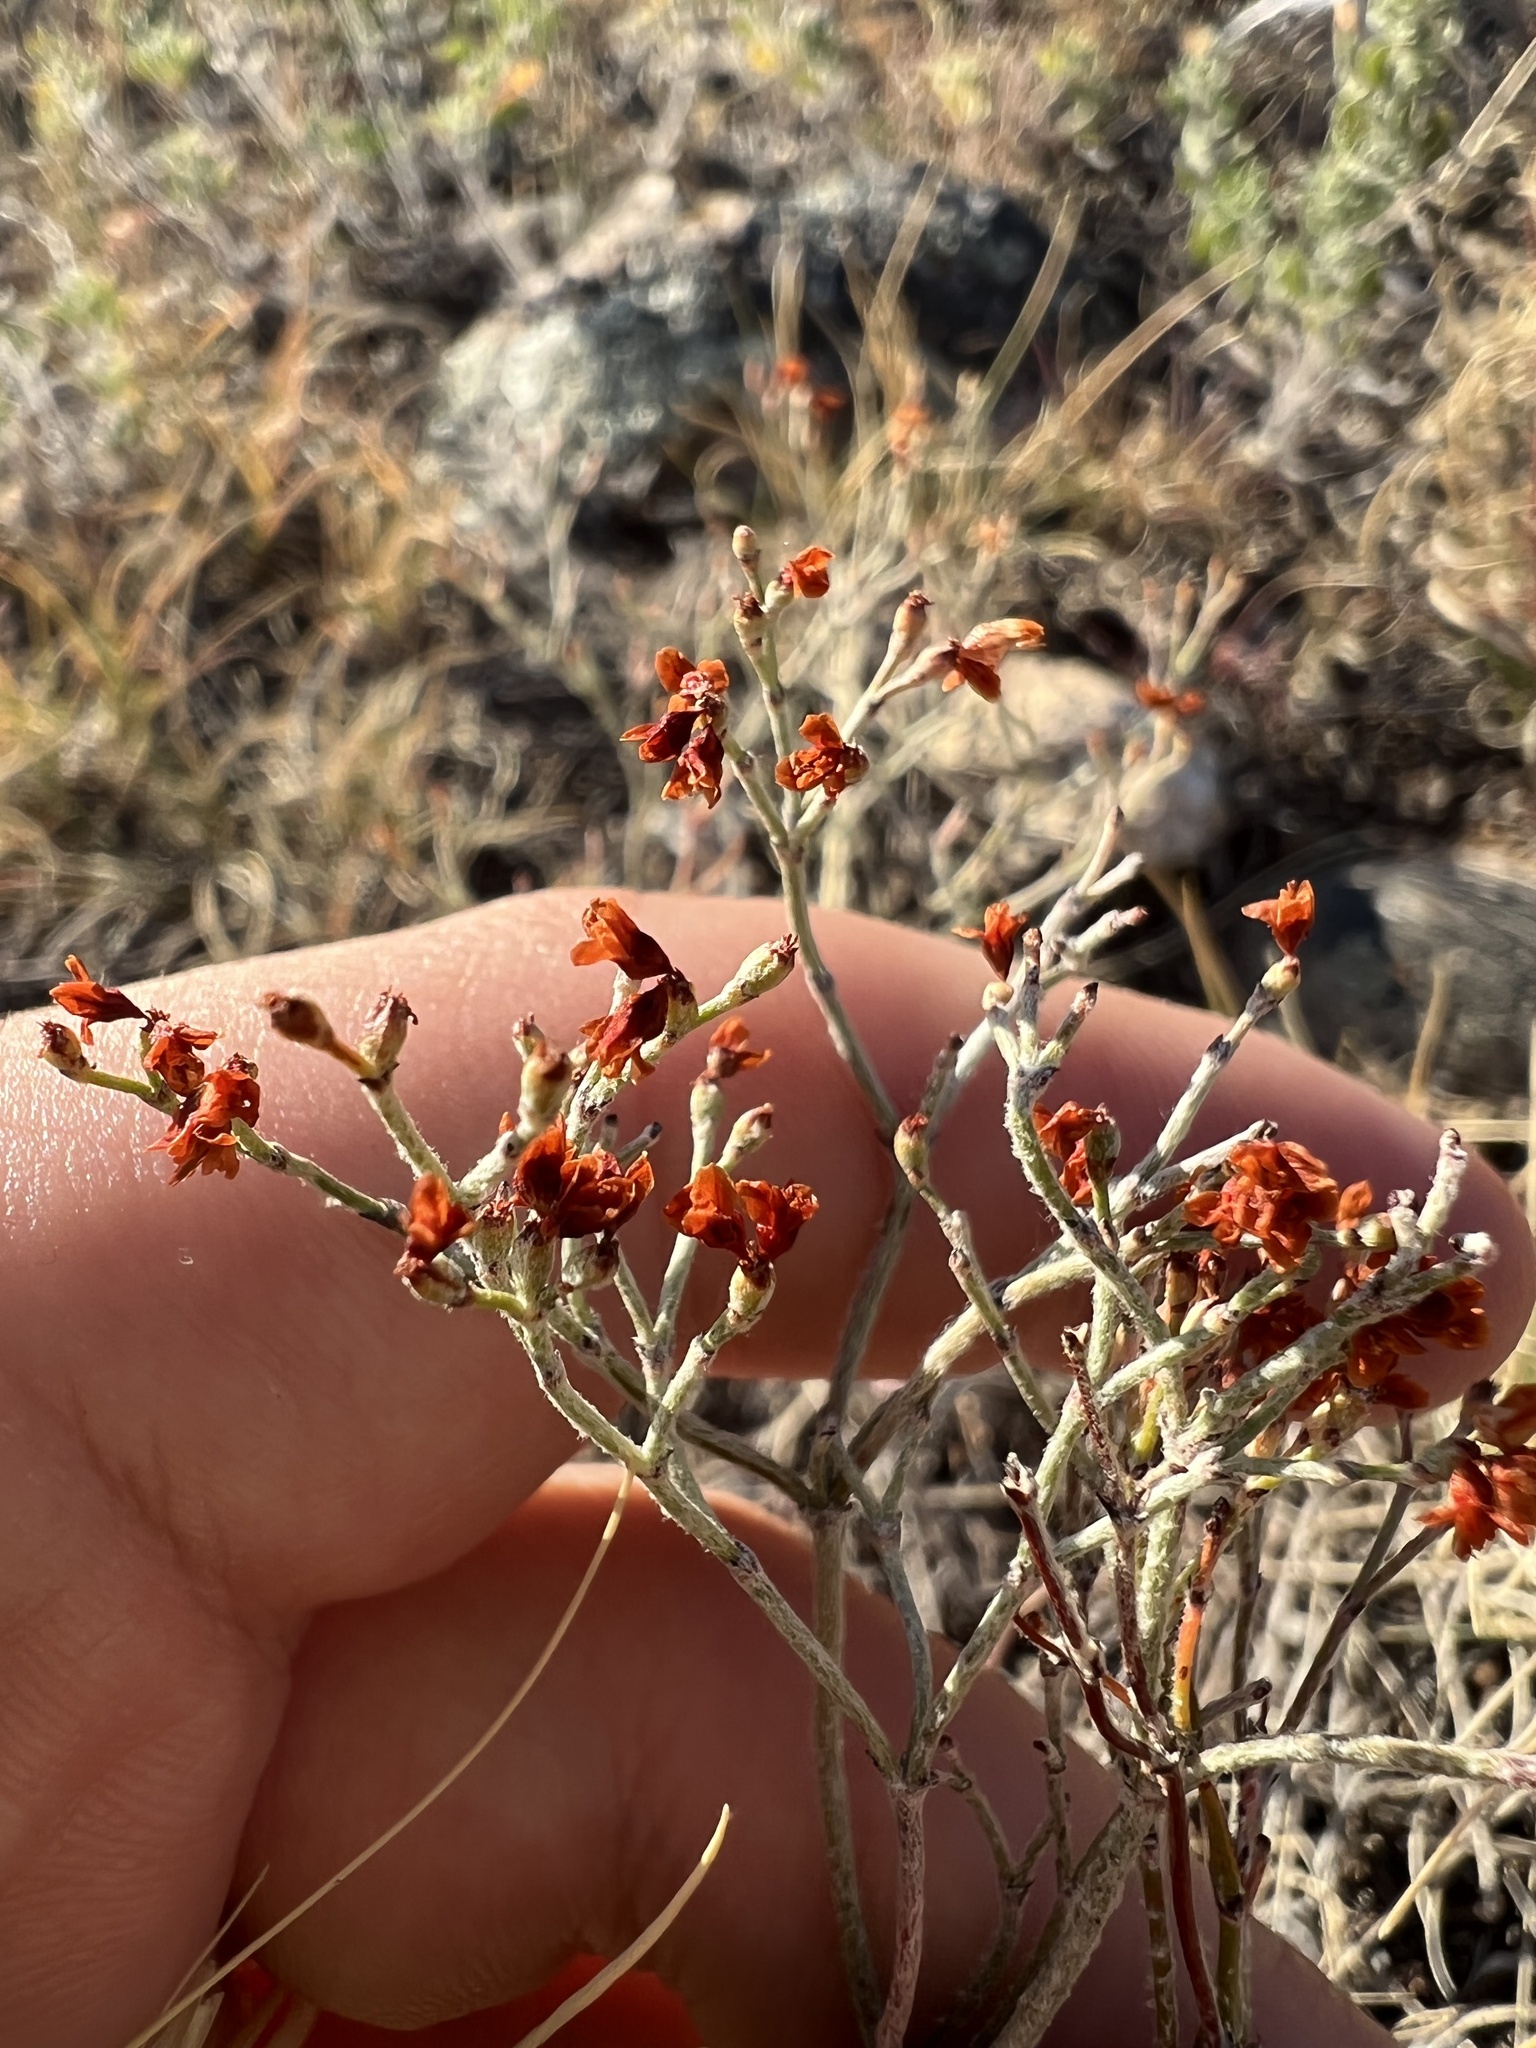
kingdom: Plantae
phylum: Tracheophyta
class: Magnoliopsida
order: Caryophyllales
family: Polygonaceae
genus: Eriogonum
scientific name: Eriogonum effusum
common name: Spreading wild buckwheat
